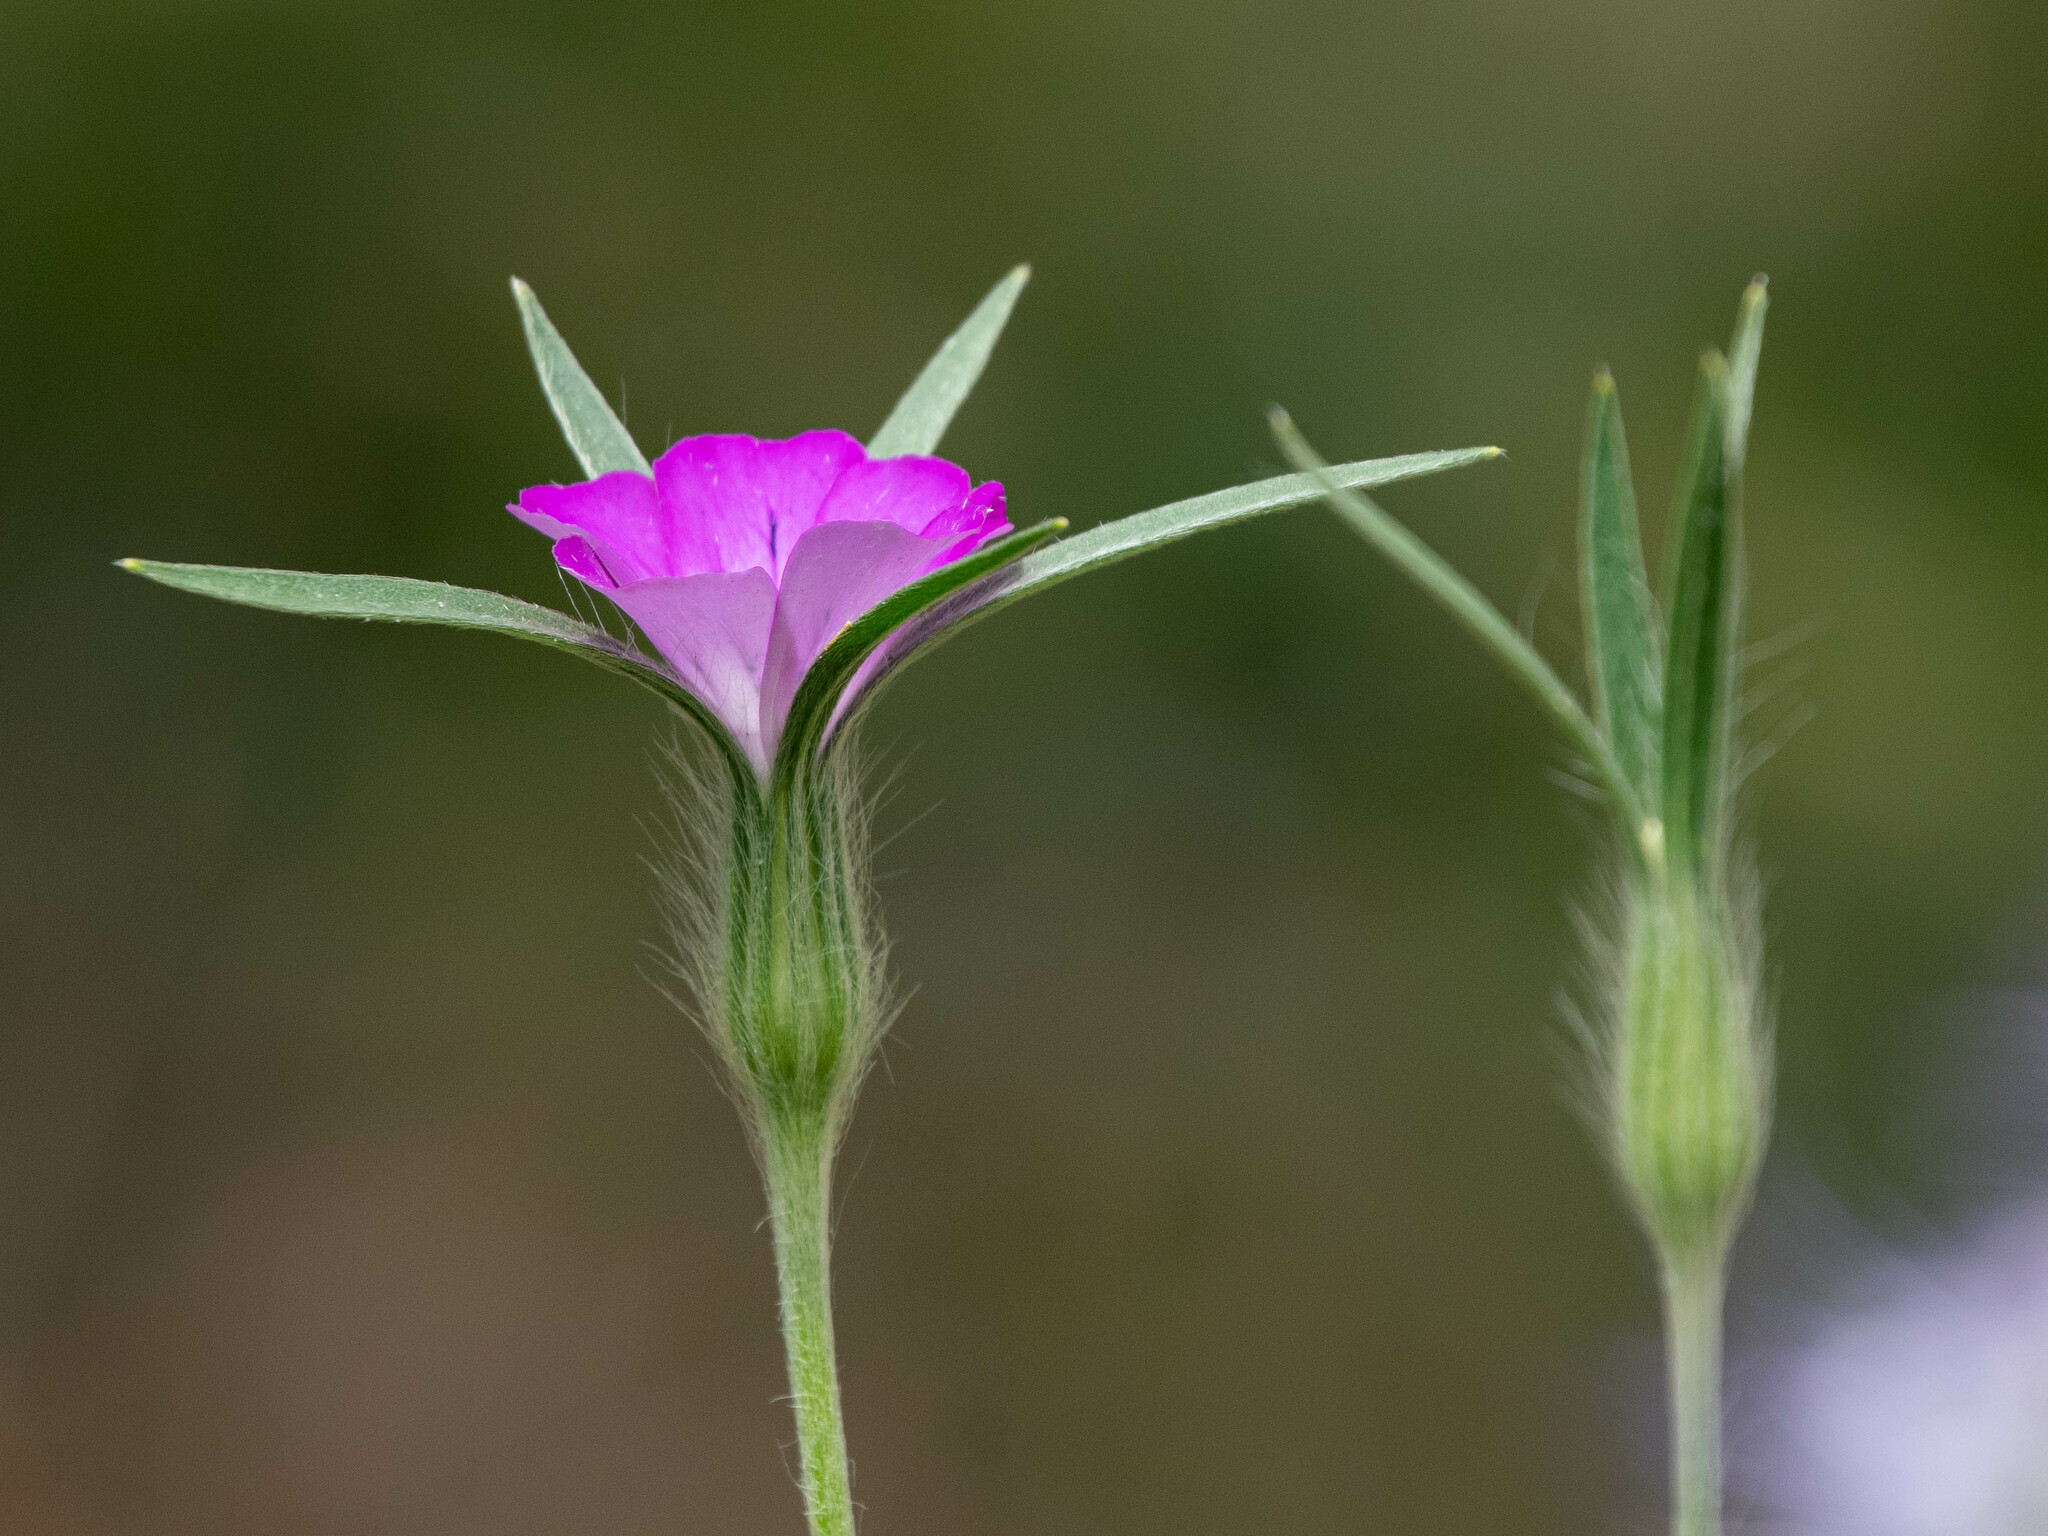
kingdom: Plantae
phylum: Tracheophyta
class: Magnoliopsida
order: Caryophyllales
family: Caryophyllaceae
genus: Agrostemma
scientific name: Agrostemma githago
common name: Common corncockle
